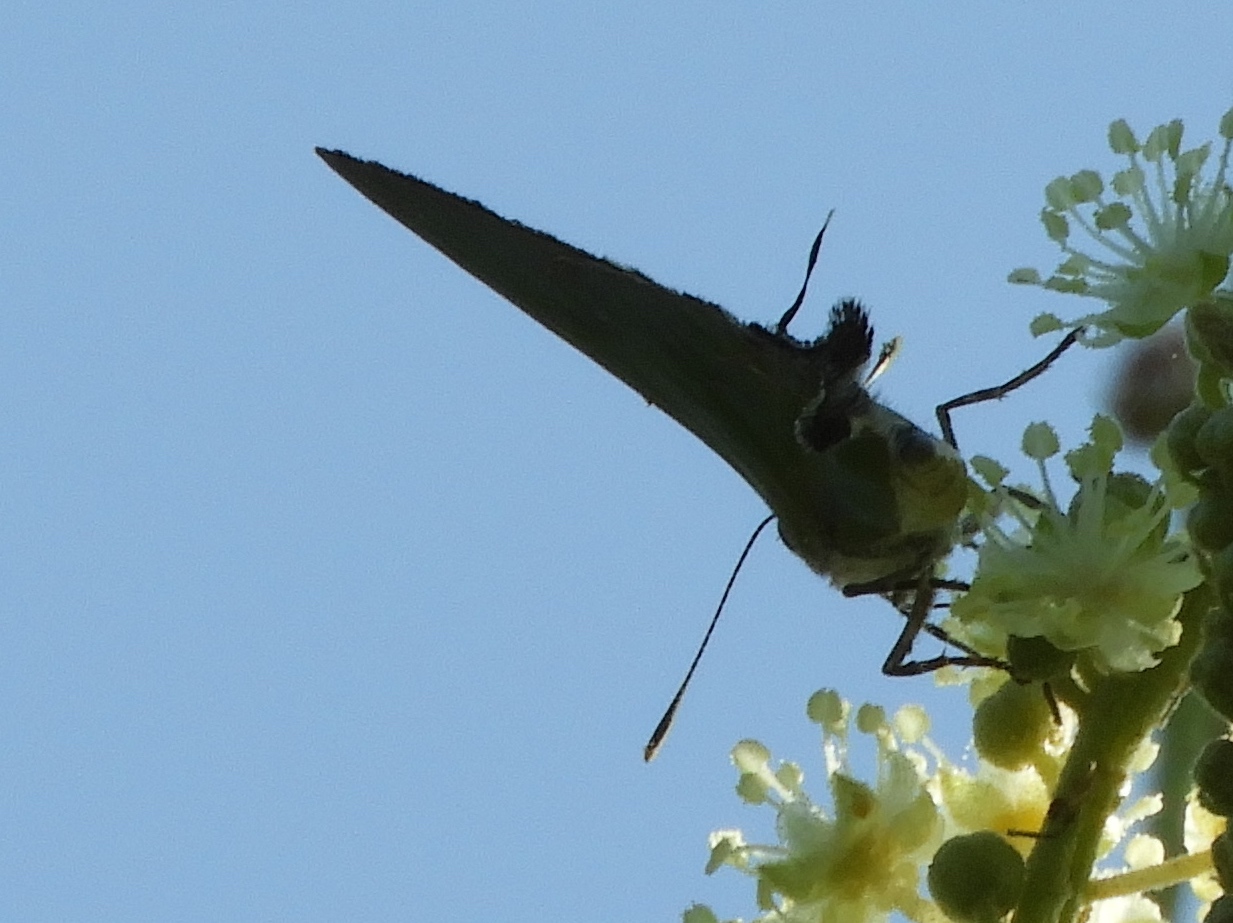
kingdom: Animalia
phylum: Arthropoda
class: Insecta
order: Lepidoptera
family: Lycaenidae
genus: Cyanophrys
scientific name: Cyanophrys
